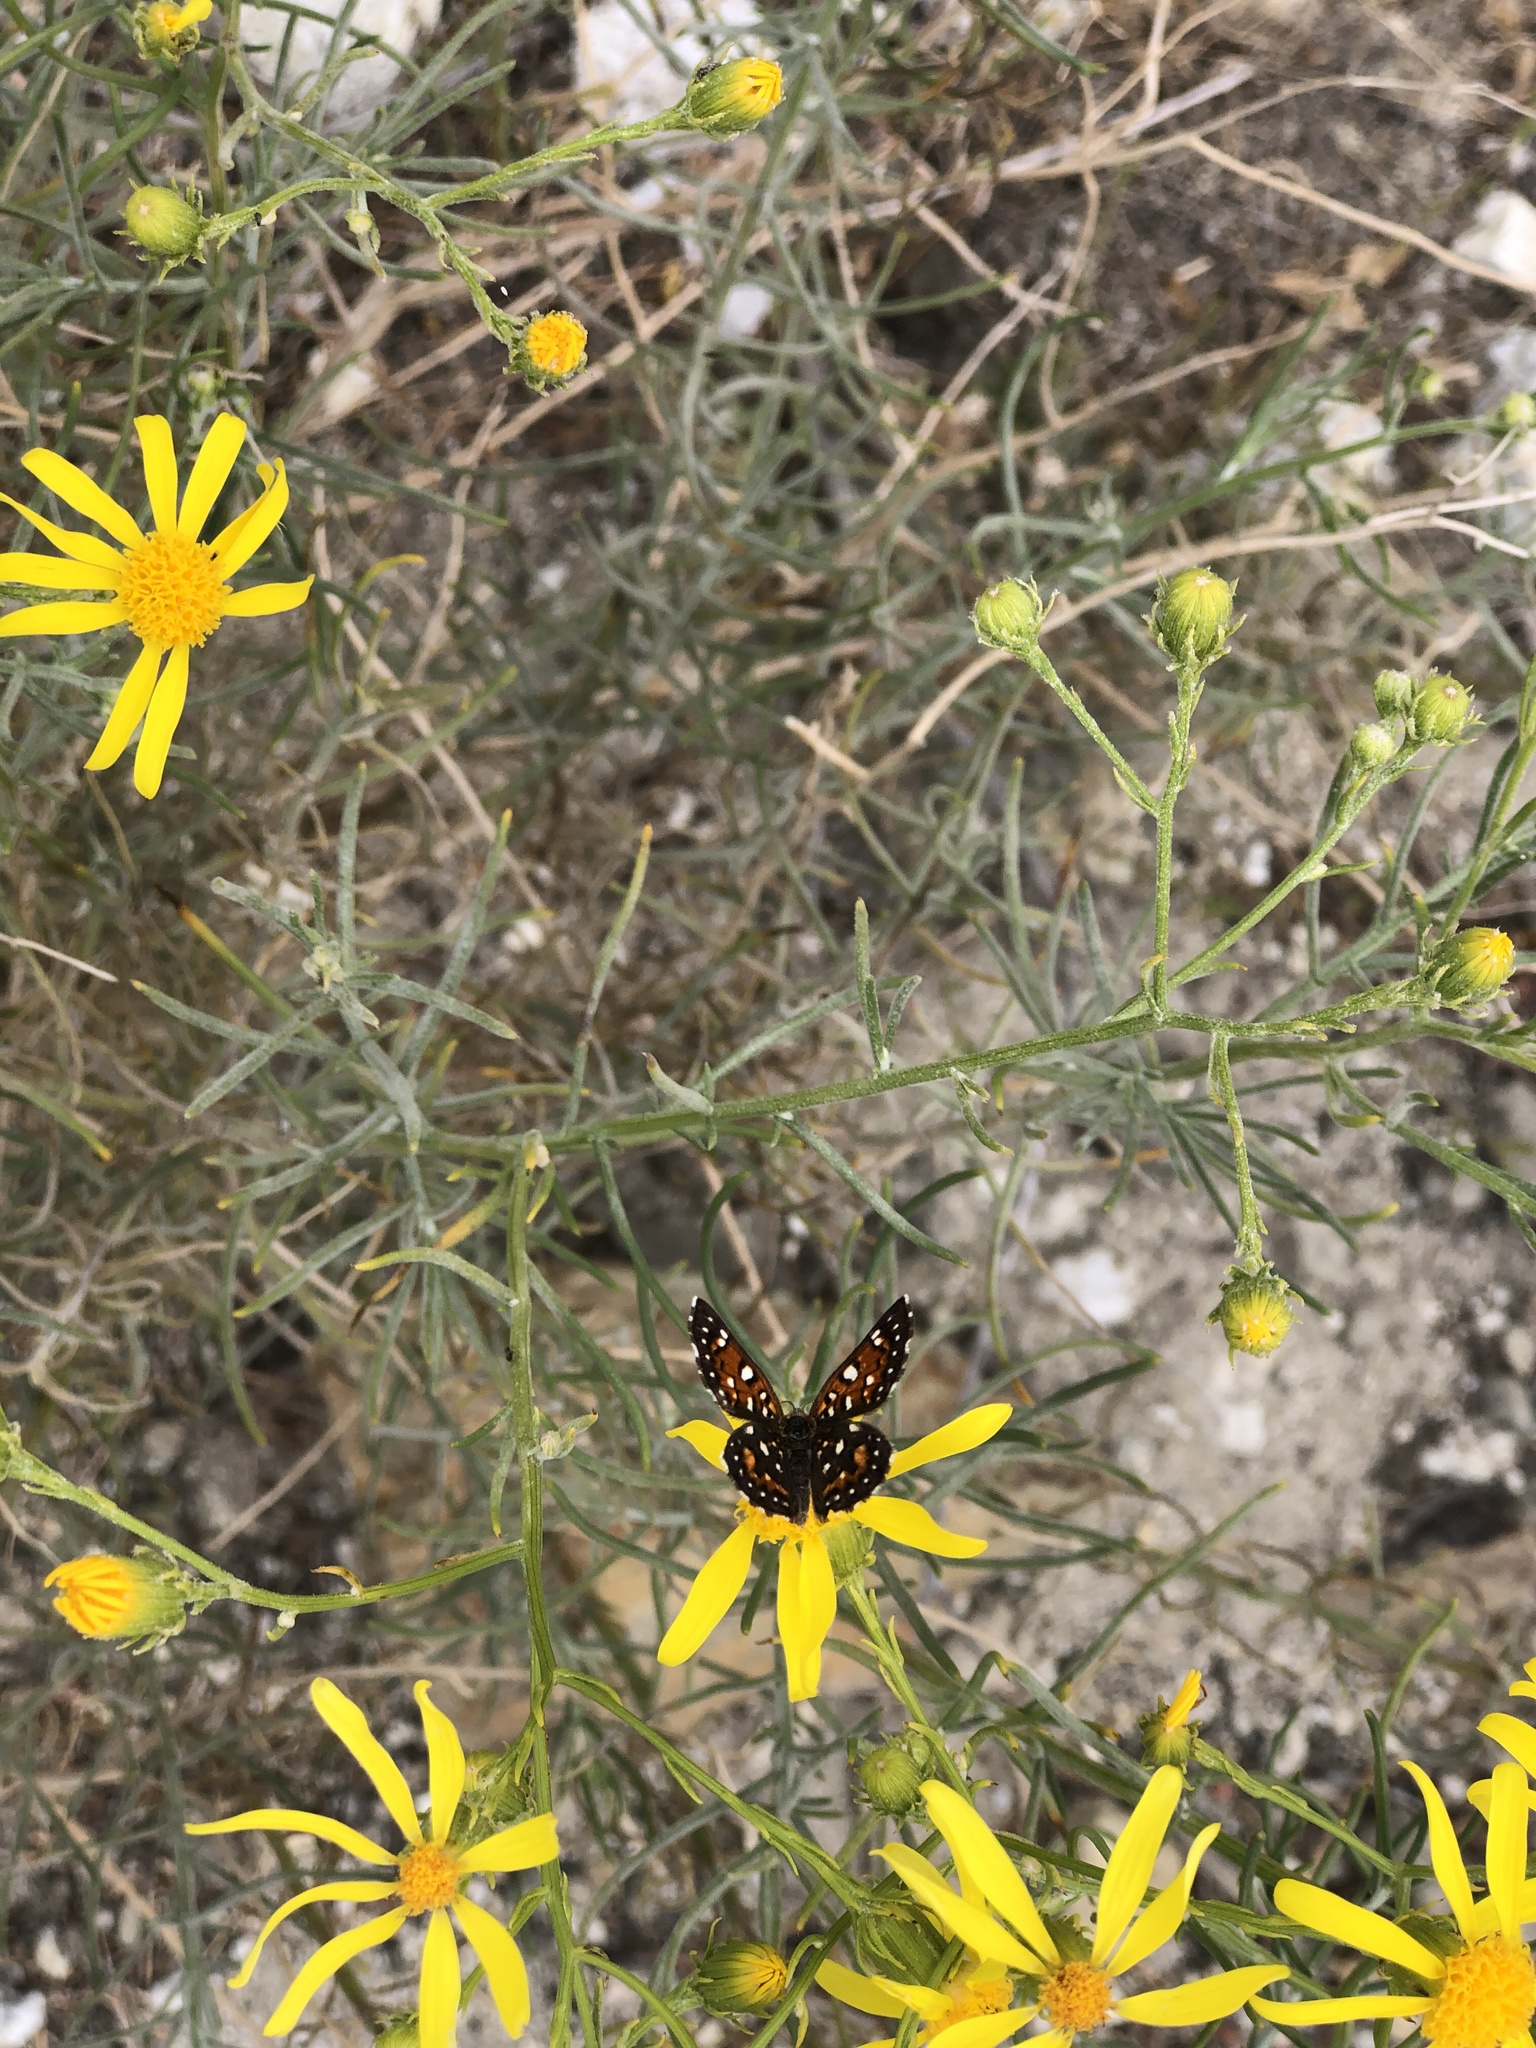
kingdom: Plantae
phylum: Tracheophyta
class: Magnoliopsida
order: Asterales
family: Asteraceae
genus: Senecio
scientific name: Senecio flaccidus
